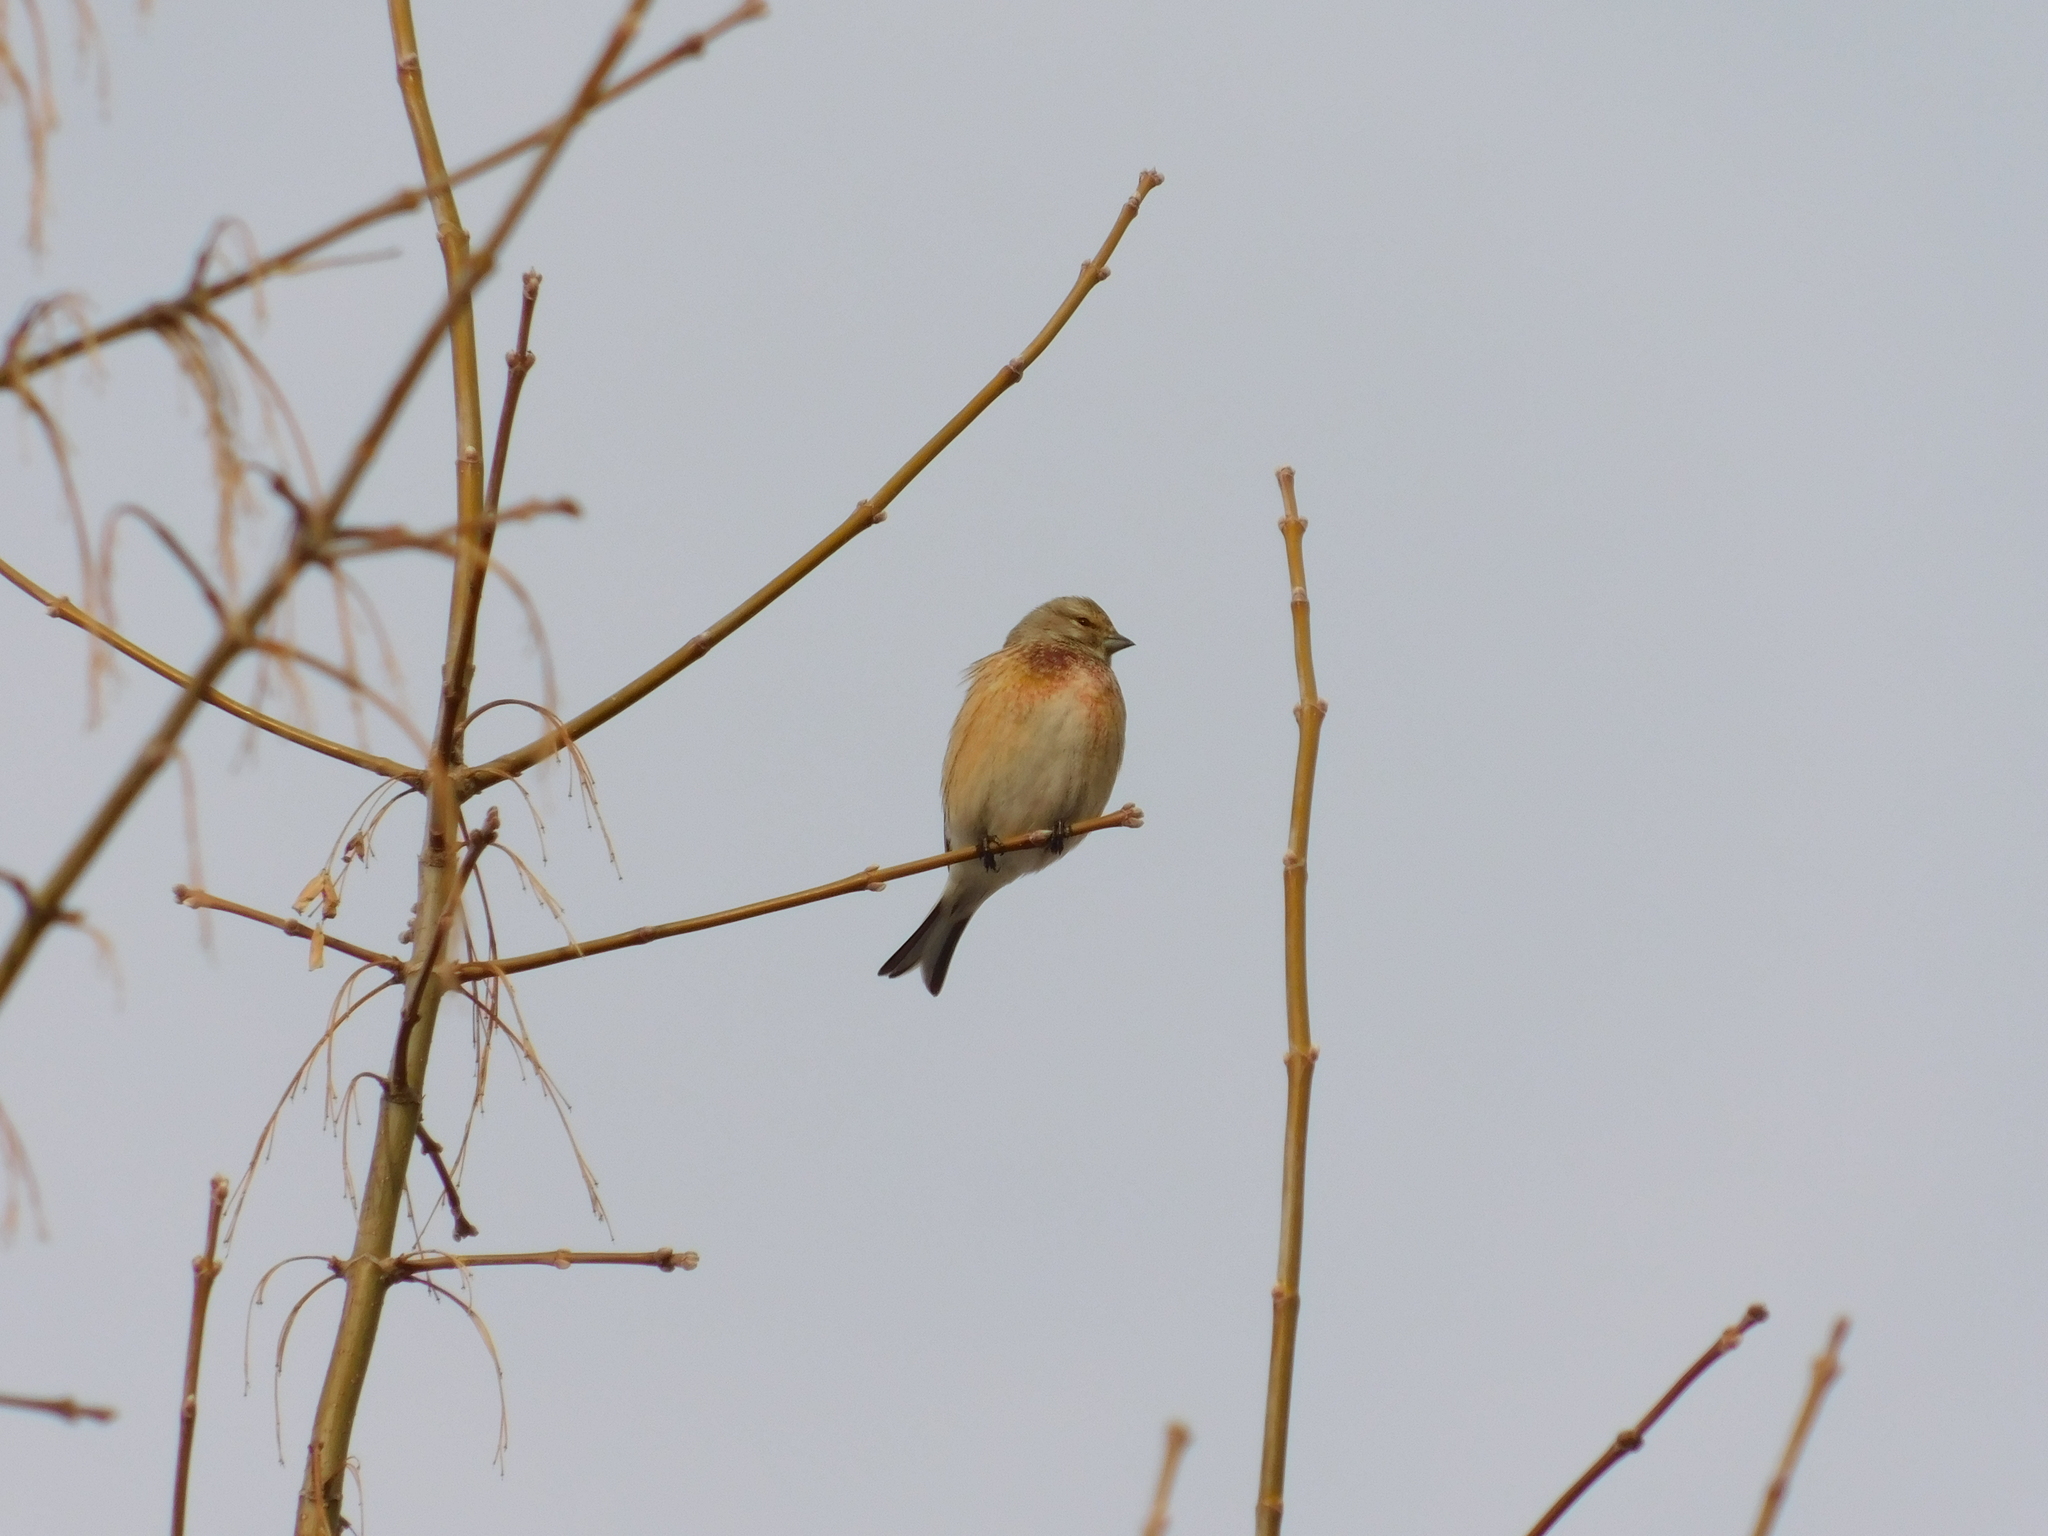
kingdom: Animalia
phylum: Chordata
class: Aves
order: Passeriformes
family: Fringillidae
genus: Linaria
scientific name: Linaria cannabina
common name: Common linnet
